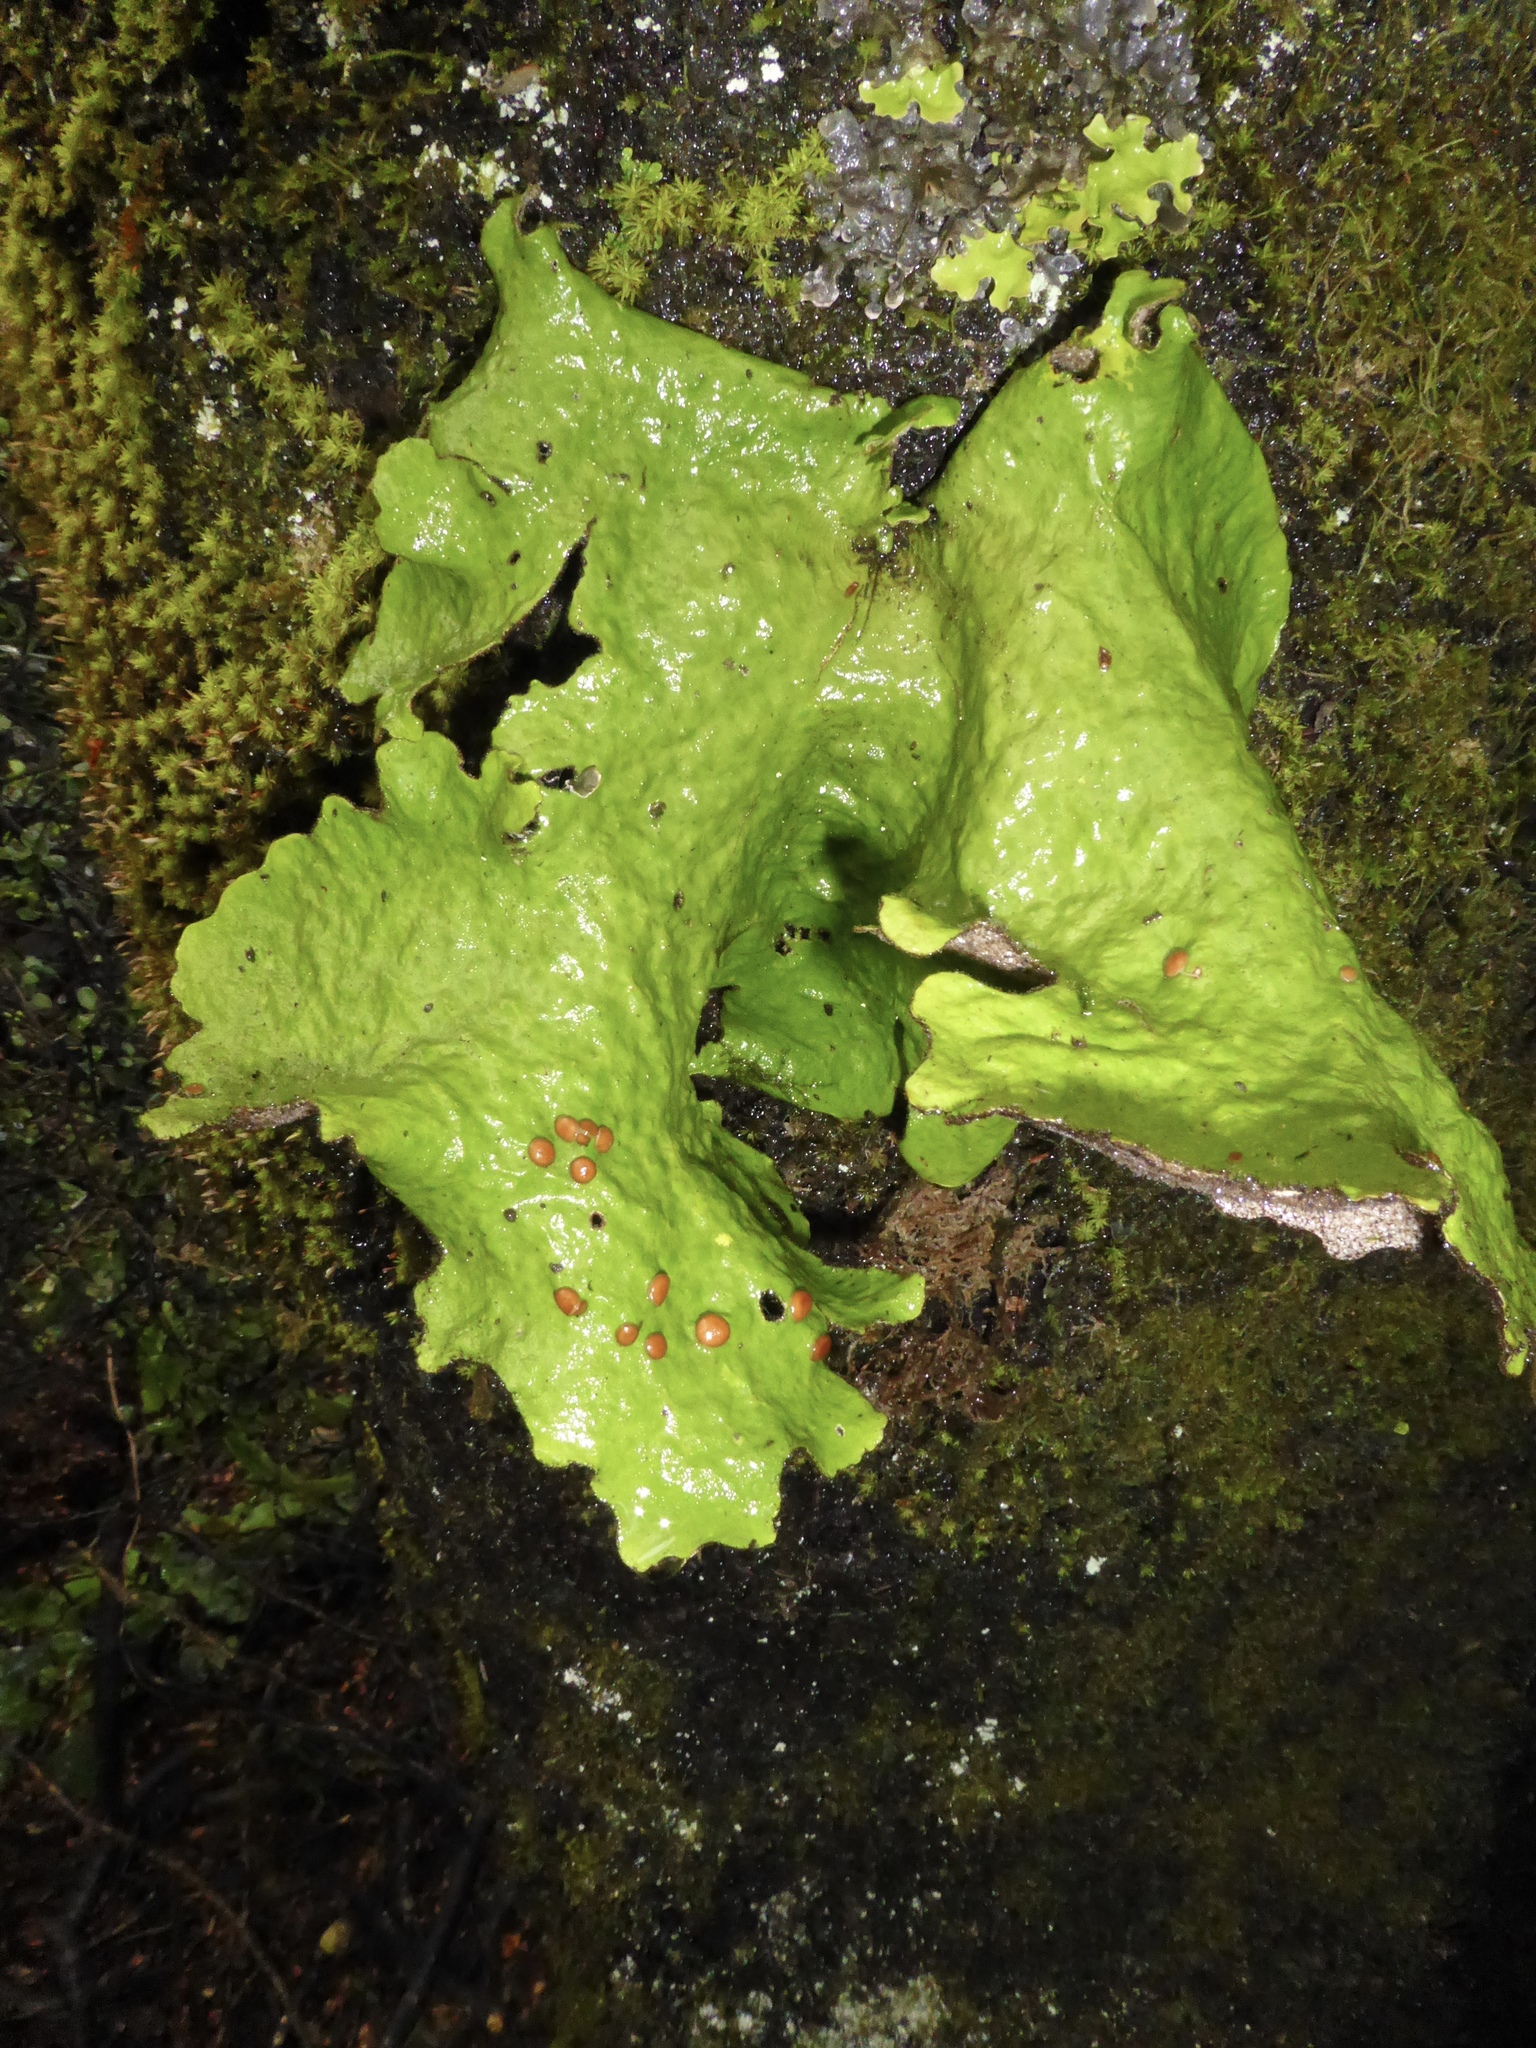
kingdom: Fungi
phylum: Ascomycota
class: Lecanoromycetes
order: Peltigerales
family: Lobariaceae
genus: Sticta
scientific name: Sticta latifrons
